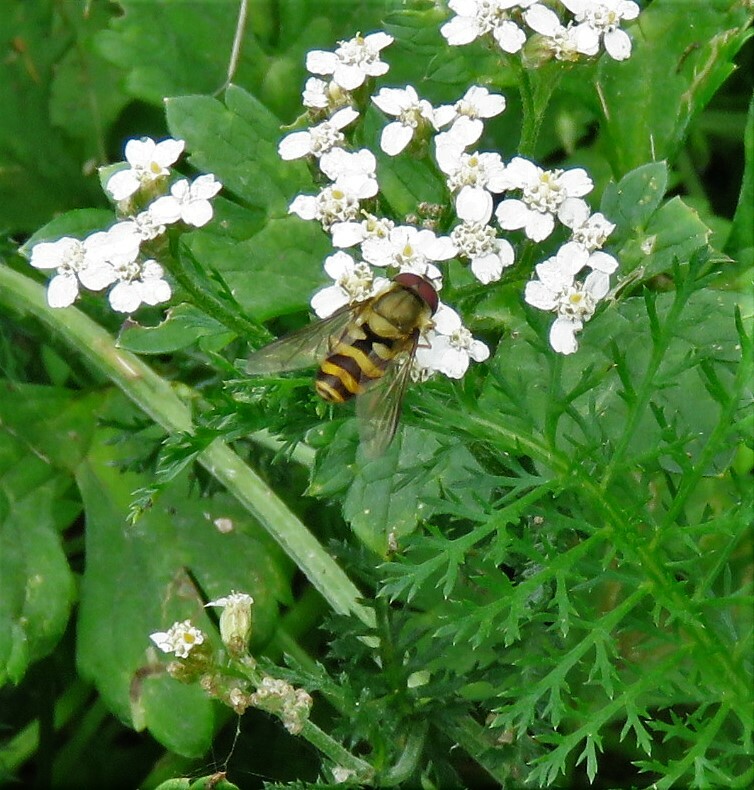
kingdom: Animalia
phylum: Arthropoda
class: Insecta
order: Diptera
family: Syrphidae
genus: Syrphus
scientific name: Syrphus
